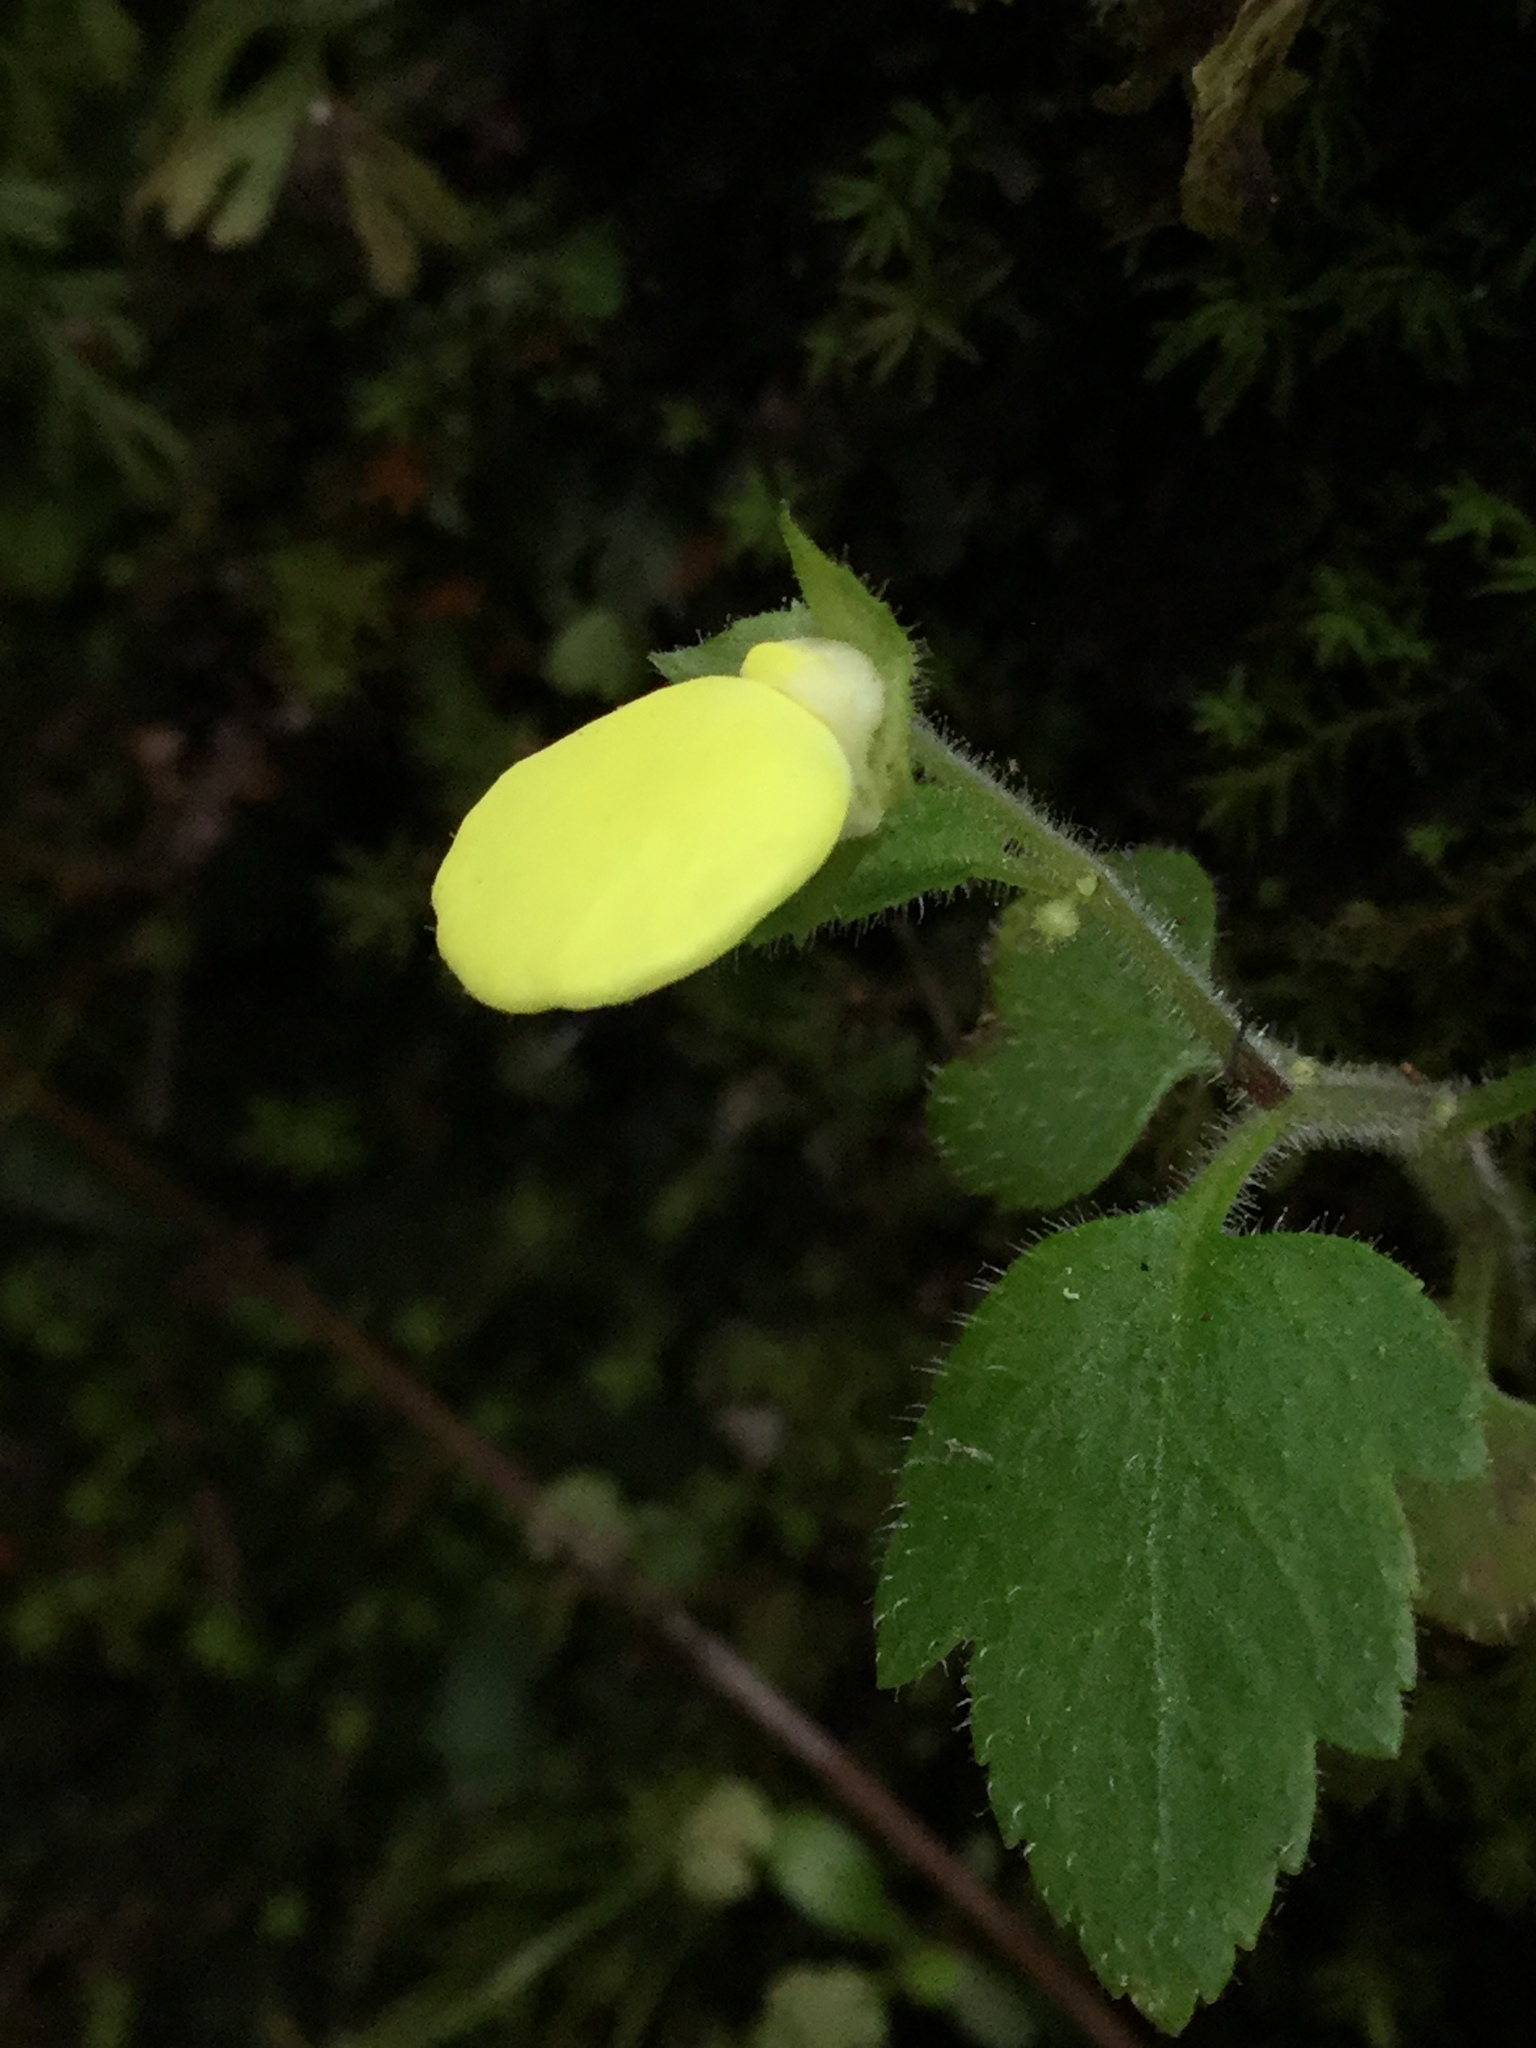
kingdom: Plantae
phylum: Tracheophyta
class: Magnoliopsida
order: Lamiales
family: Calceolariaceae
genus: Calceolaria
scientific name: Calceolaria tripartita
